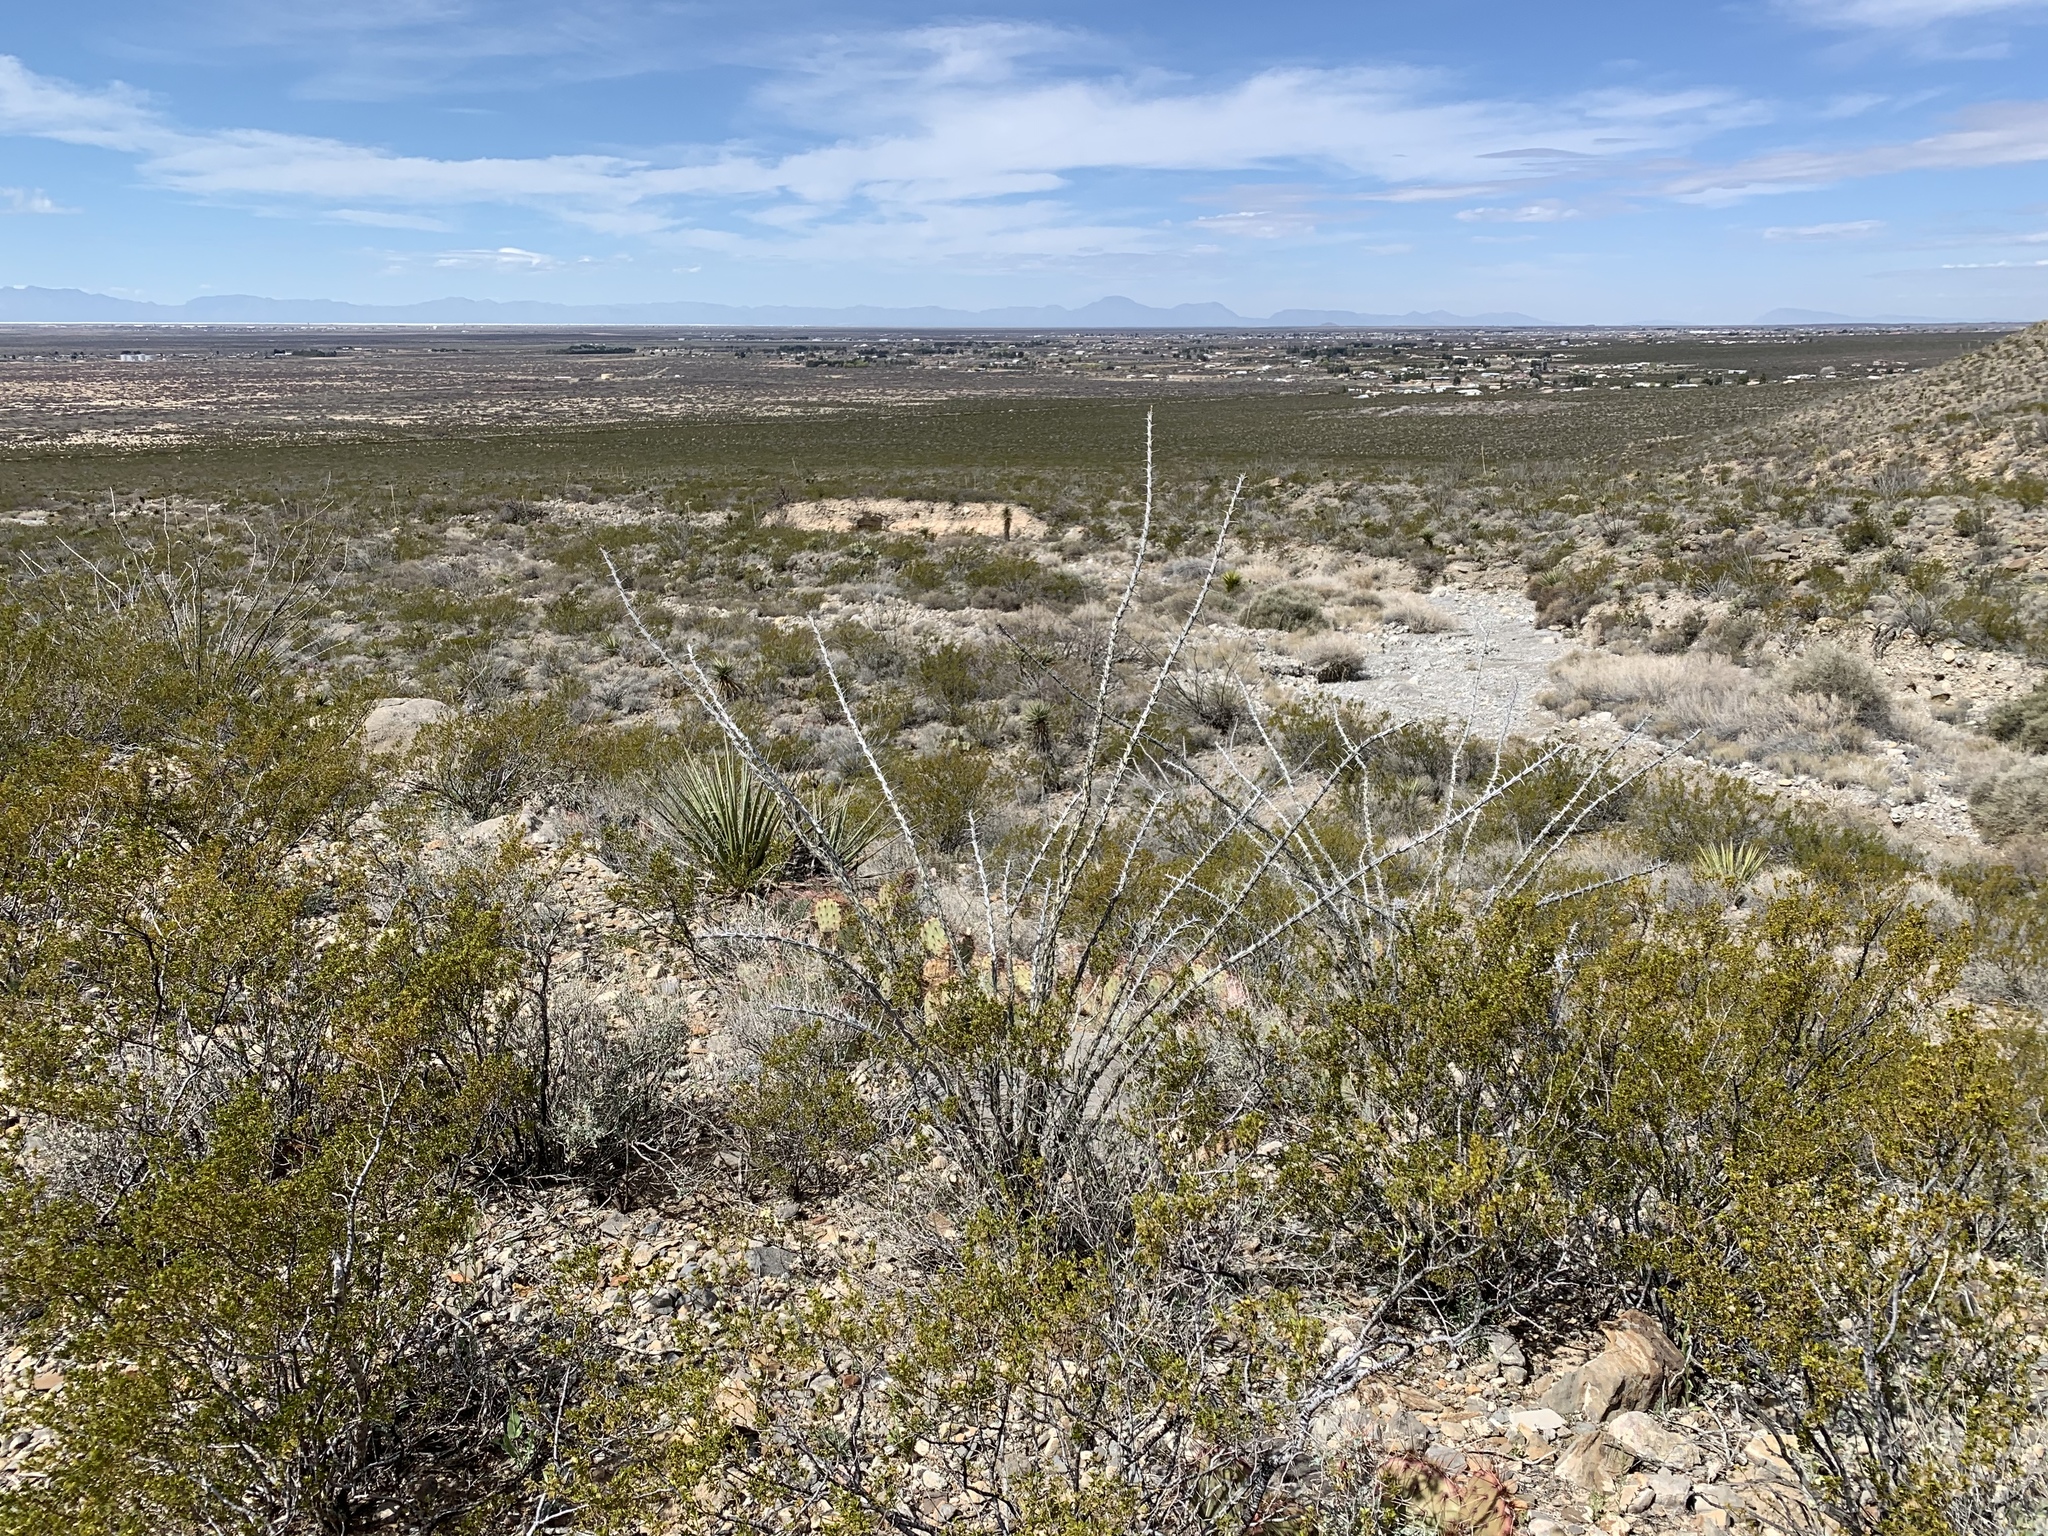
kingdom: Plantae
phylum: Tracheophyta
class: Magnoliopsida
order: Ericales
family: Fouquieriaceae
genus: Fouquieria
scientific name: Fouquieria splendens
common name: Vine-cactus
